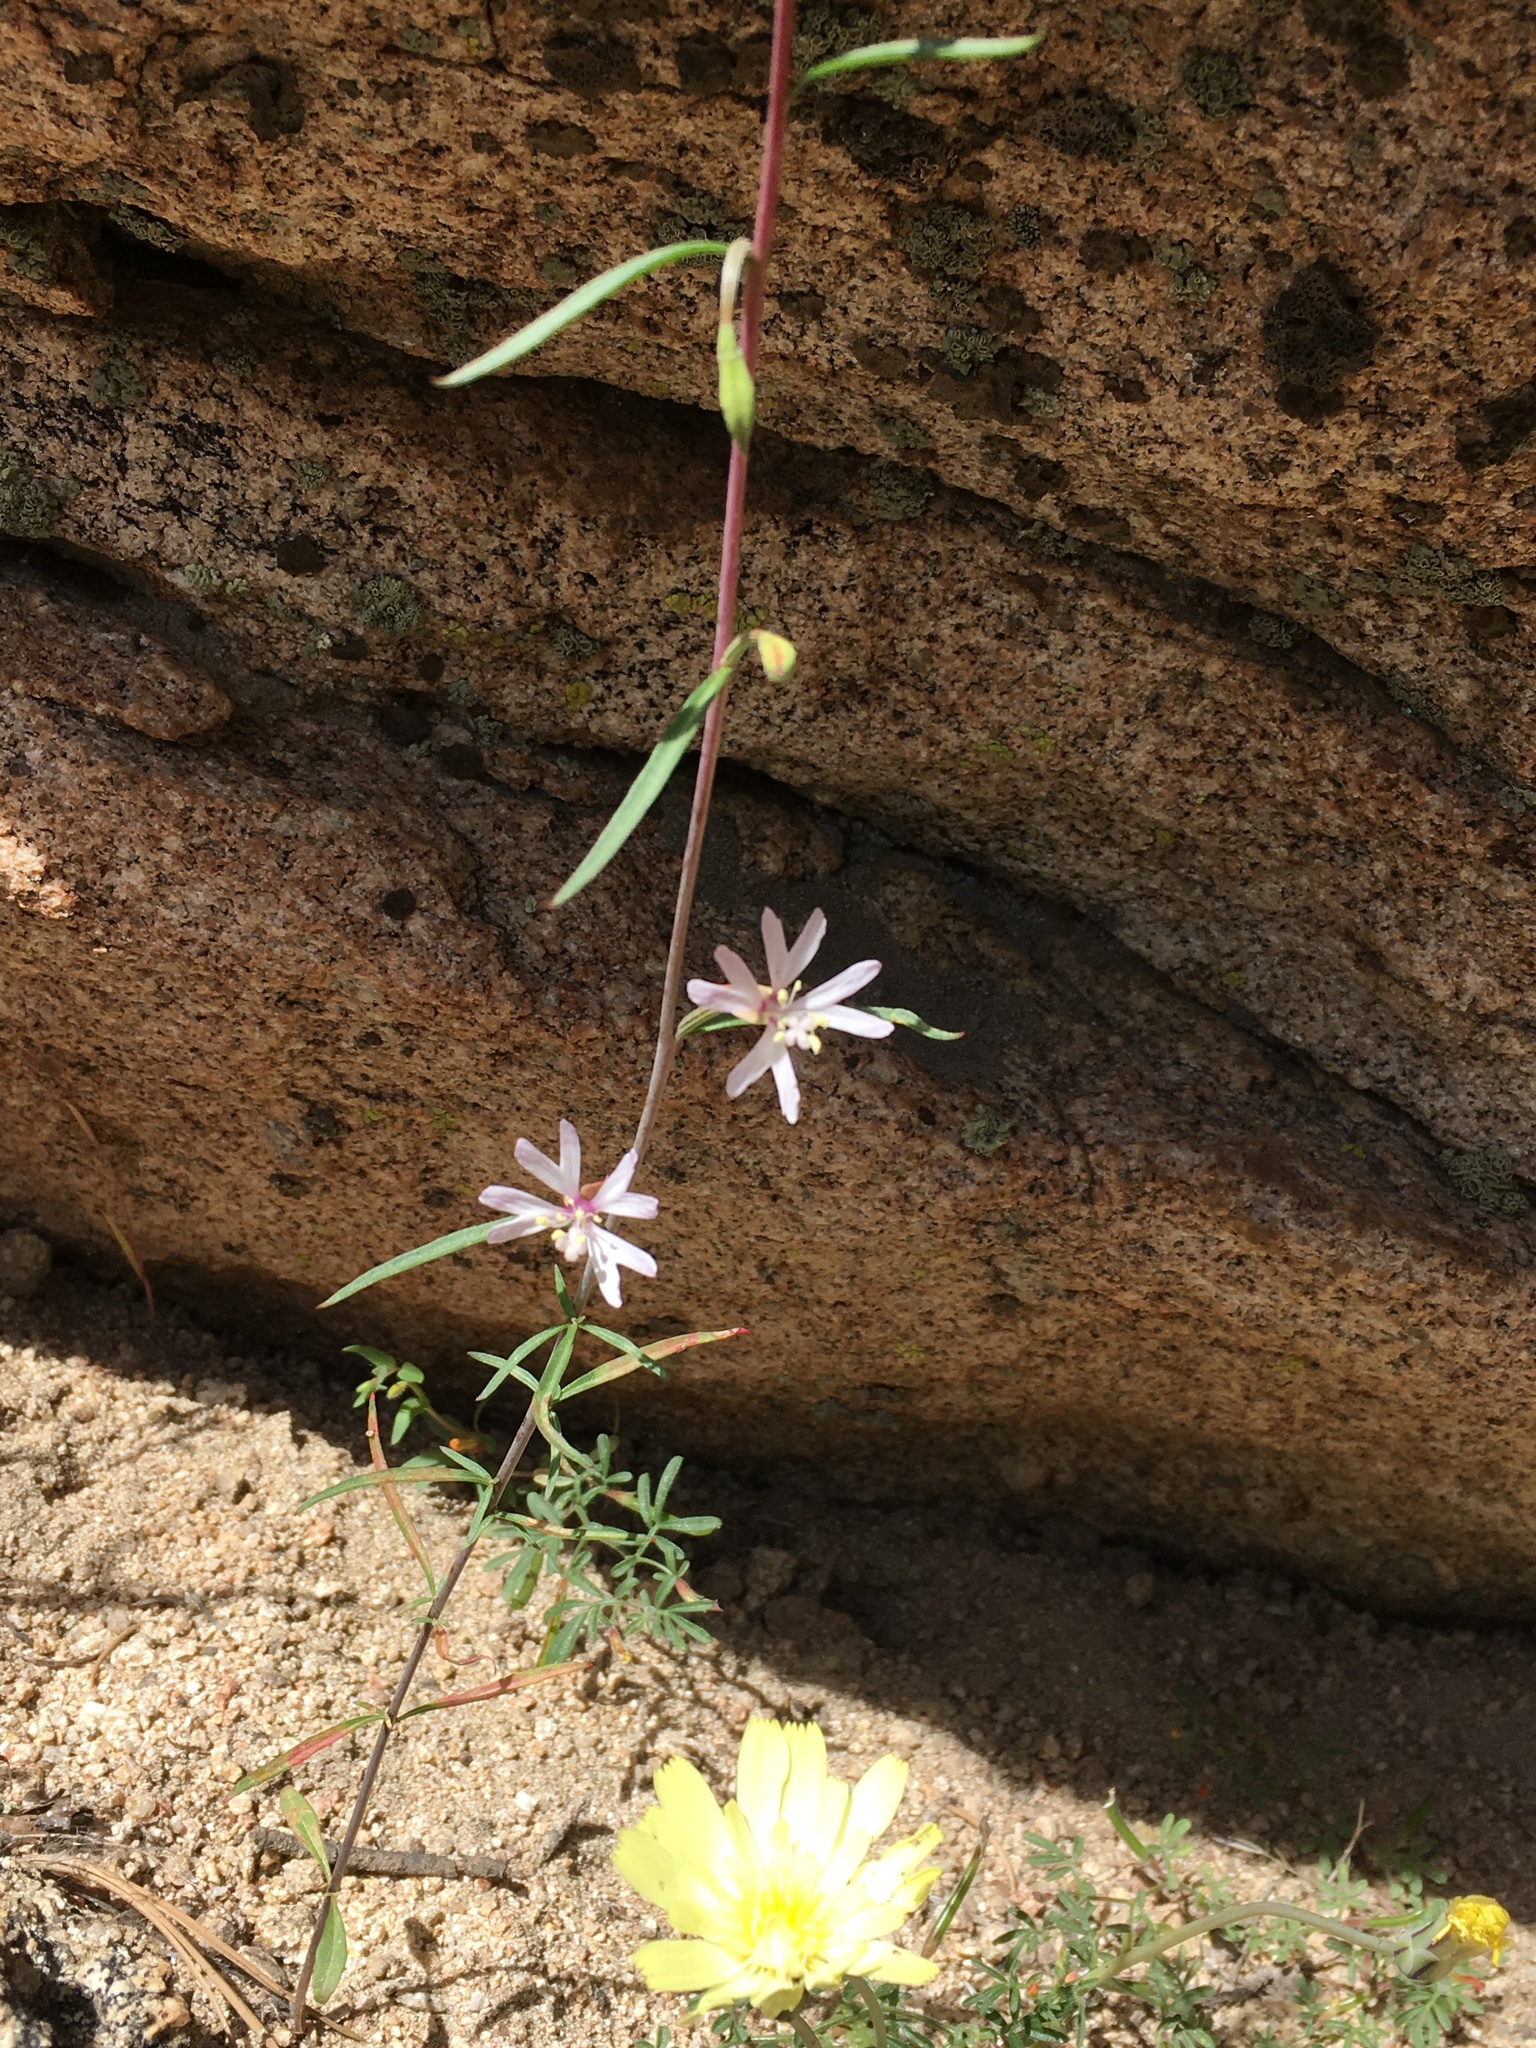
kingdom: Plantae
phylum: Tracheophyta
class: Magnoliopsida
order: Myrtales
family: Onagraceae
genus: Clarkia
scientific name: Clarkia xantiana
